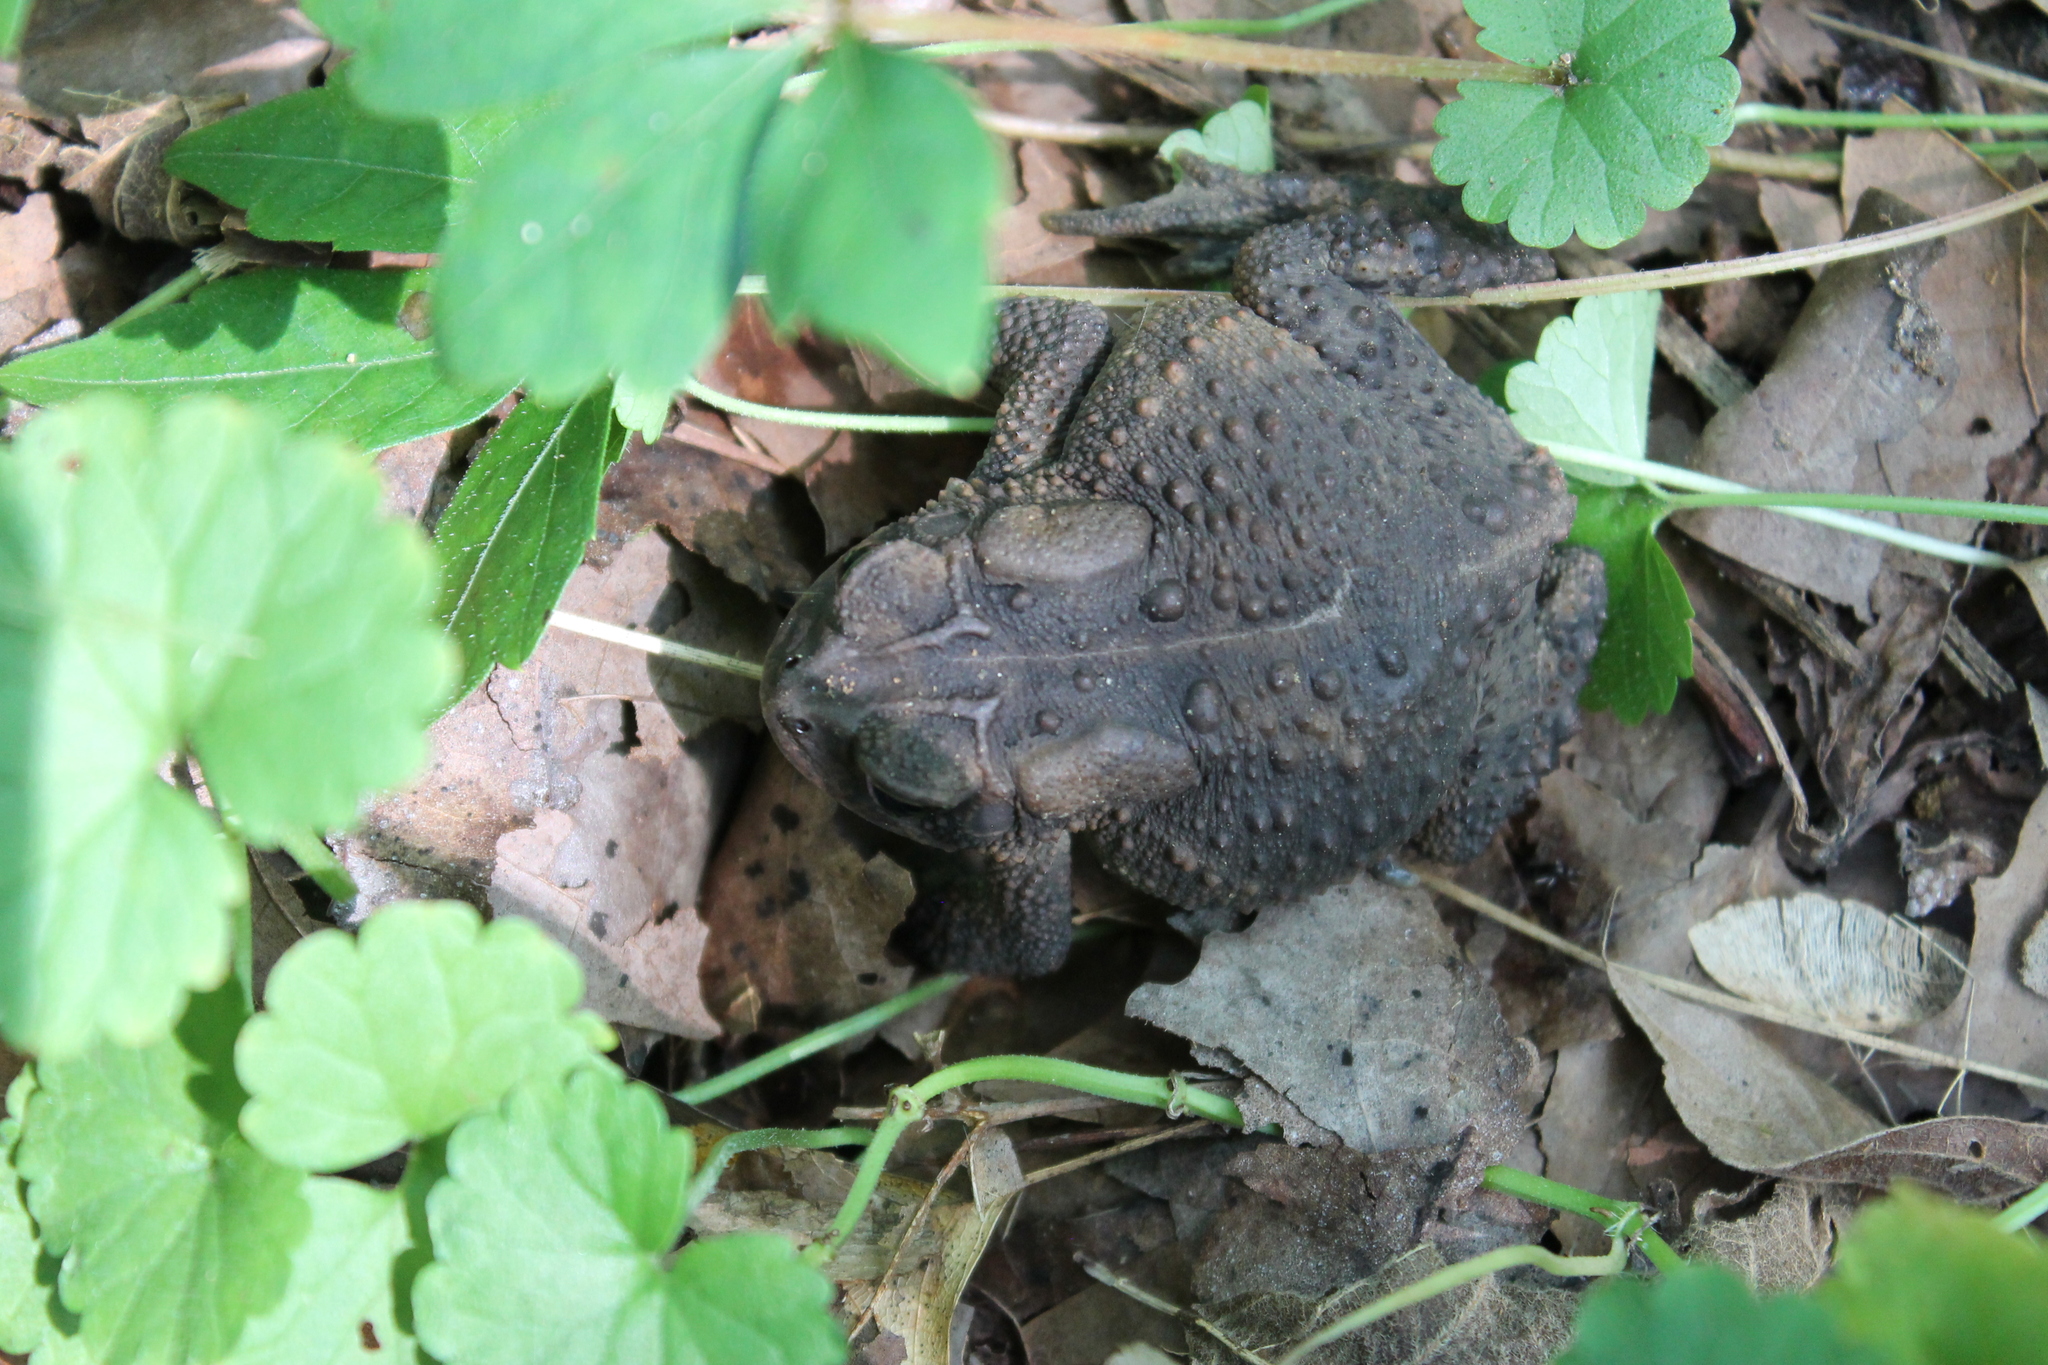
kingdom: Animalia
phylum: Chordata
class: Amphibia
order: Anura
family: Bufonidae
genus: Anaxyrus
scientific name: Anaxyrus americanus
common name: American toad
